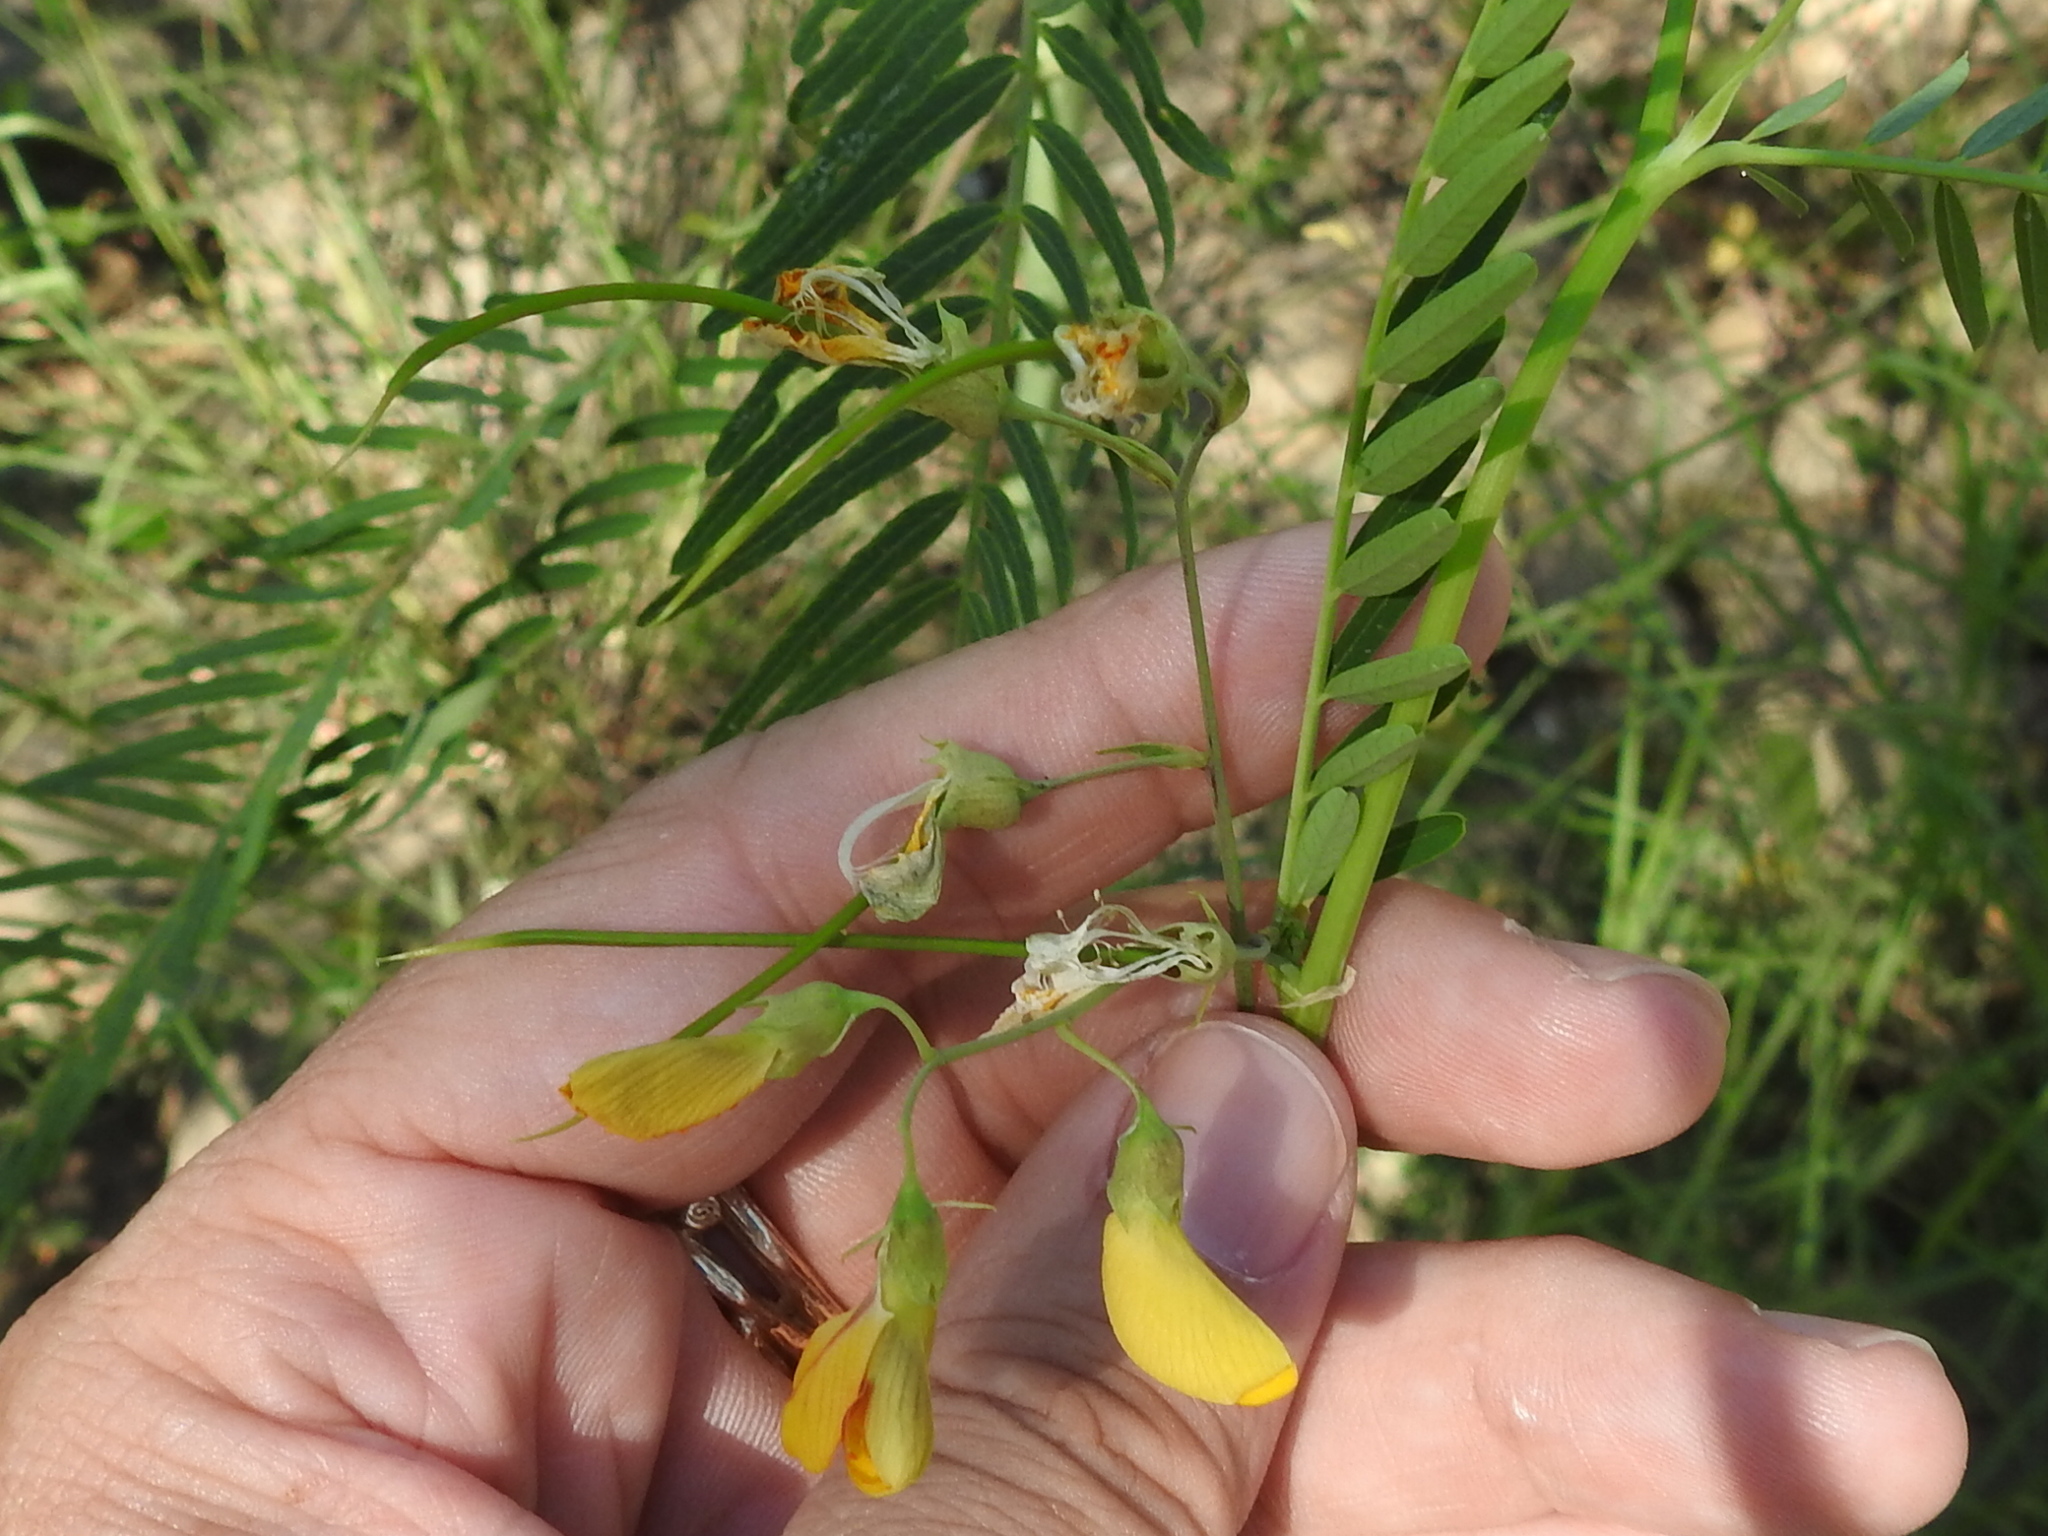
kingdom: Plantae
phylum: Tracheophyta
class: Magnoliopsida
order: Fabales
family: Fabaceae
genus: Sesbania
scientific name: Sesbania herbacea
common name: Bigpod sesbania
